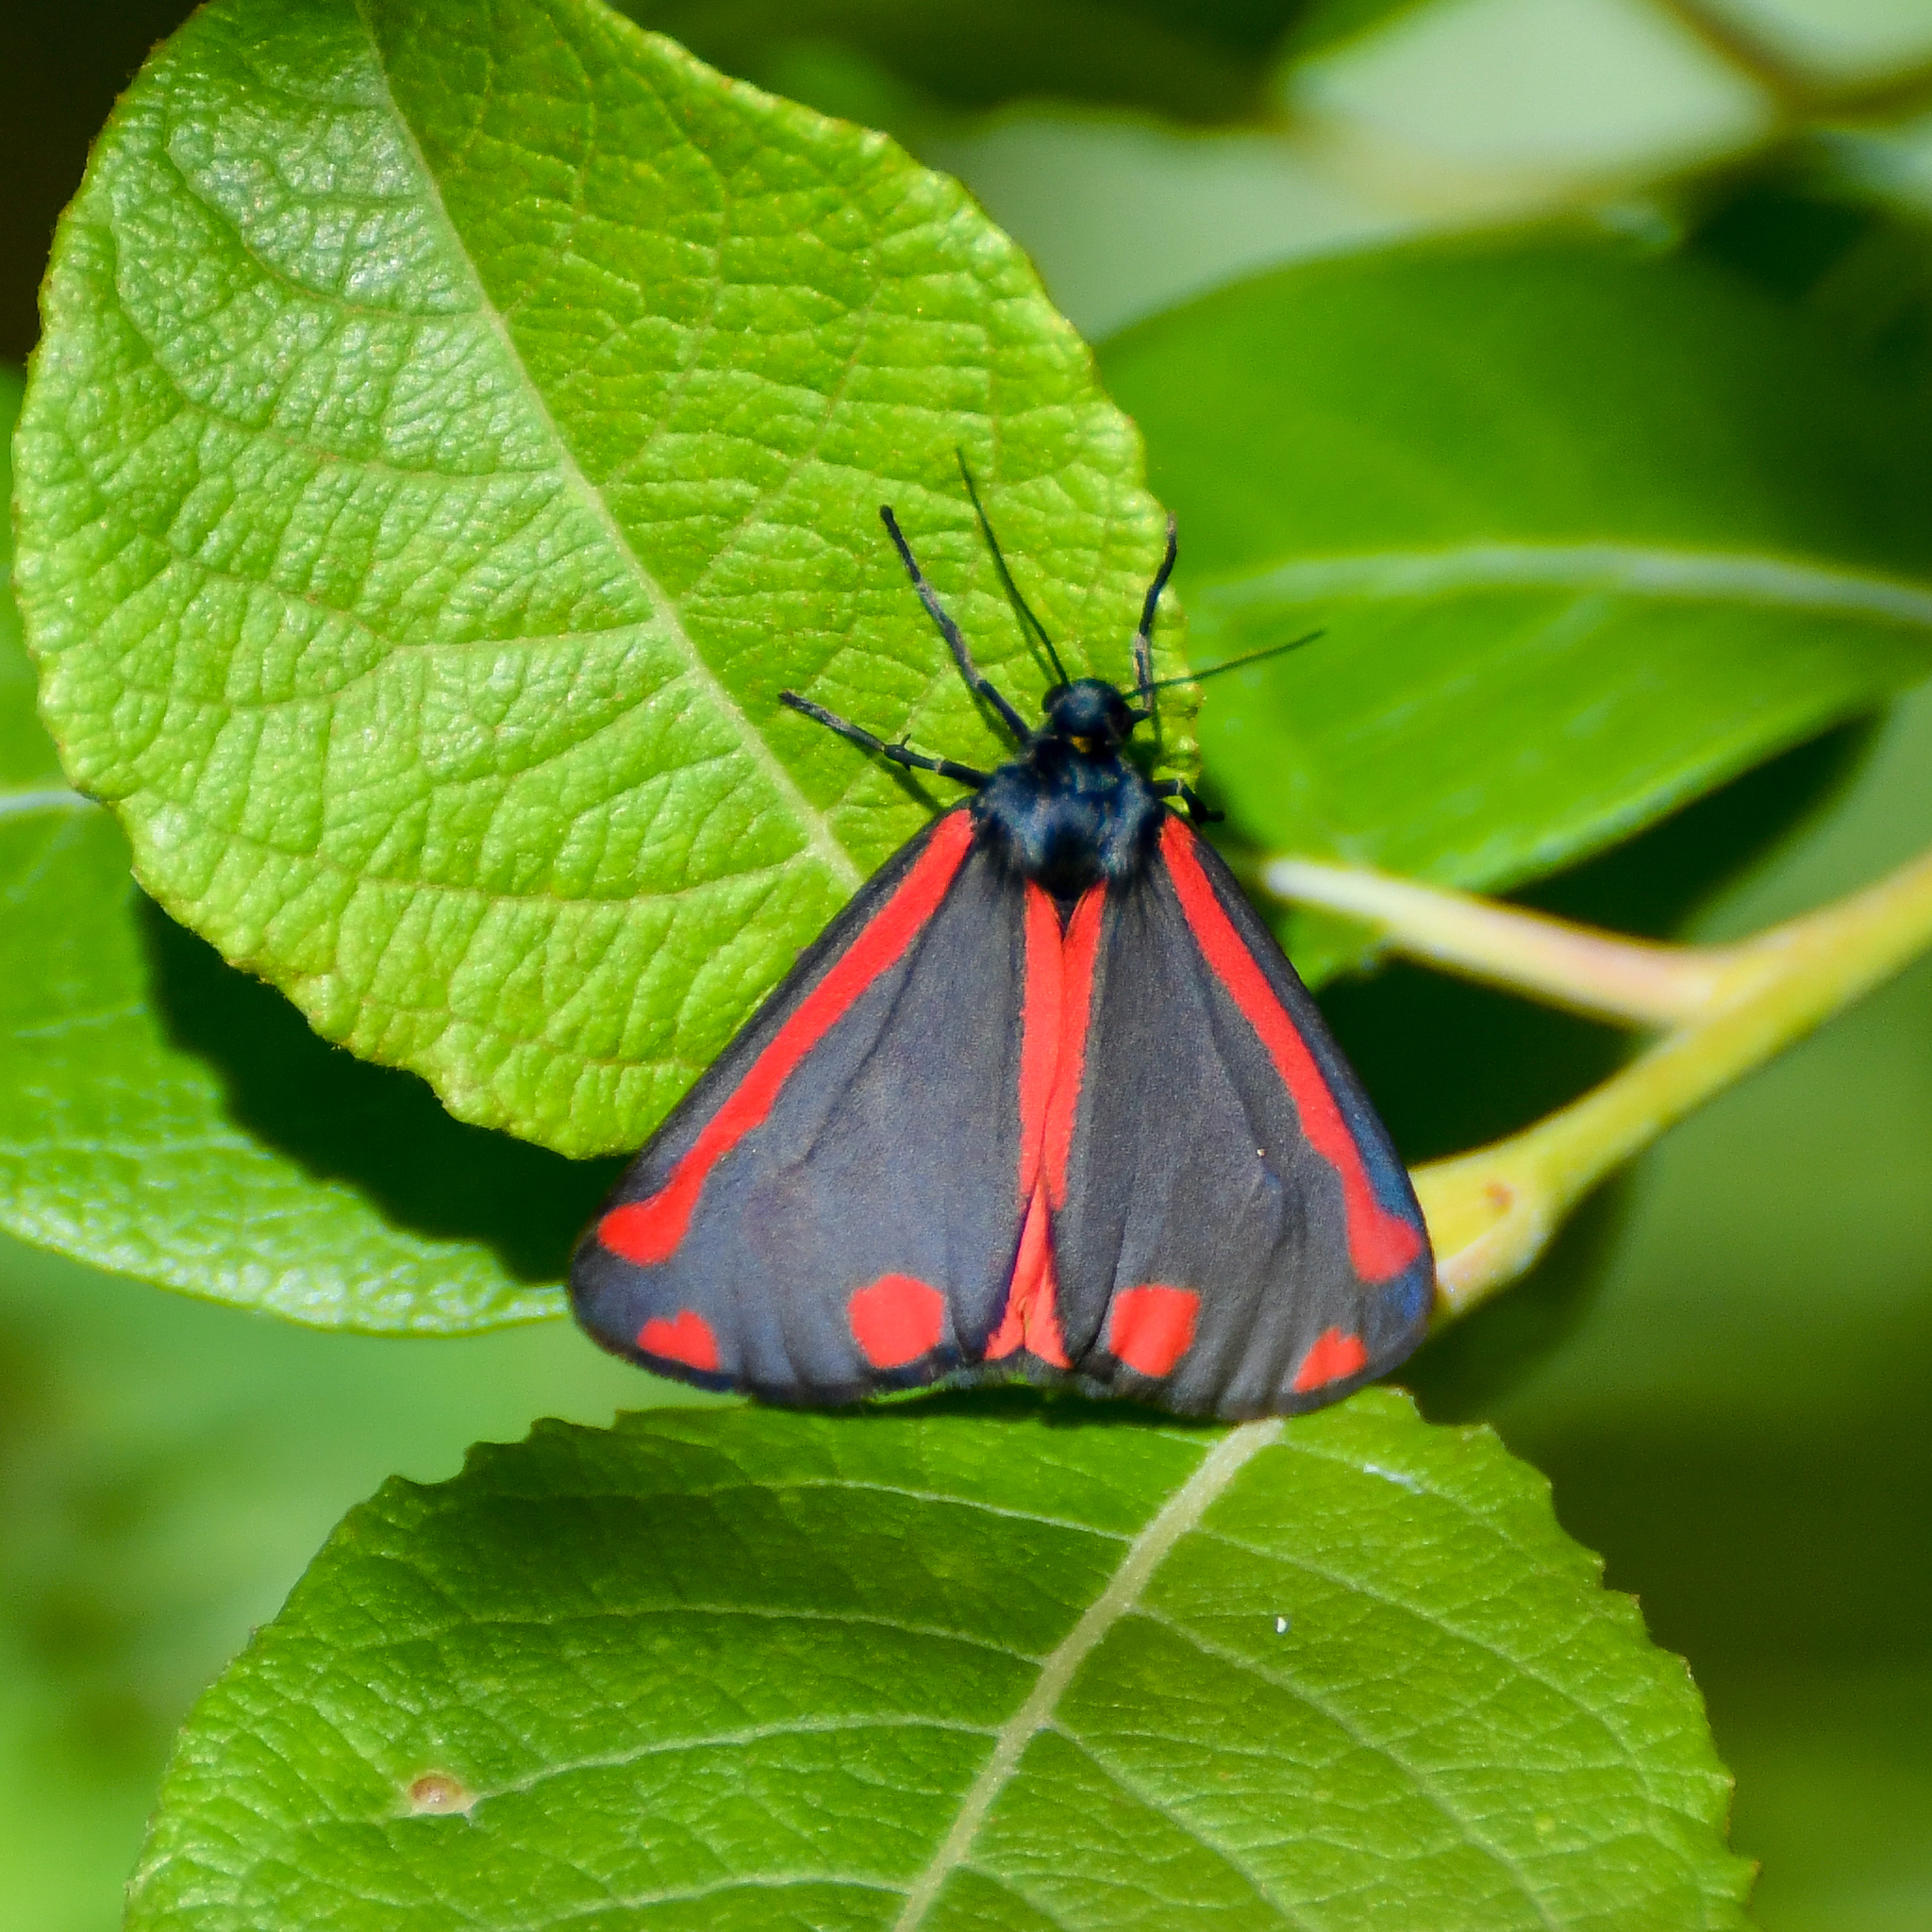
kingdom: Animalia
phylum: Arthropoda
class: Insecta
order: Lepidoptera
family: Erebidae
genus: Tyria
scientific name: Tyria jacobaeae
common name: Cinnabar
